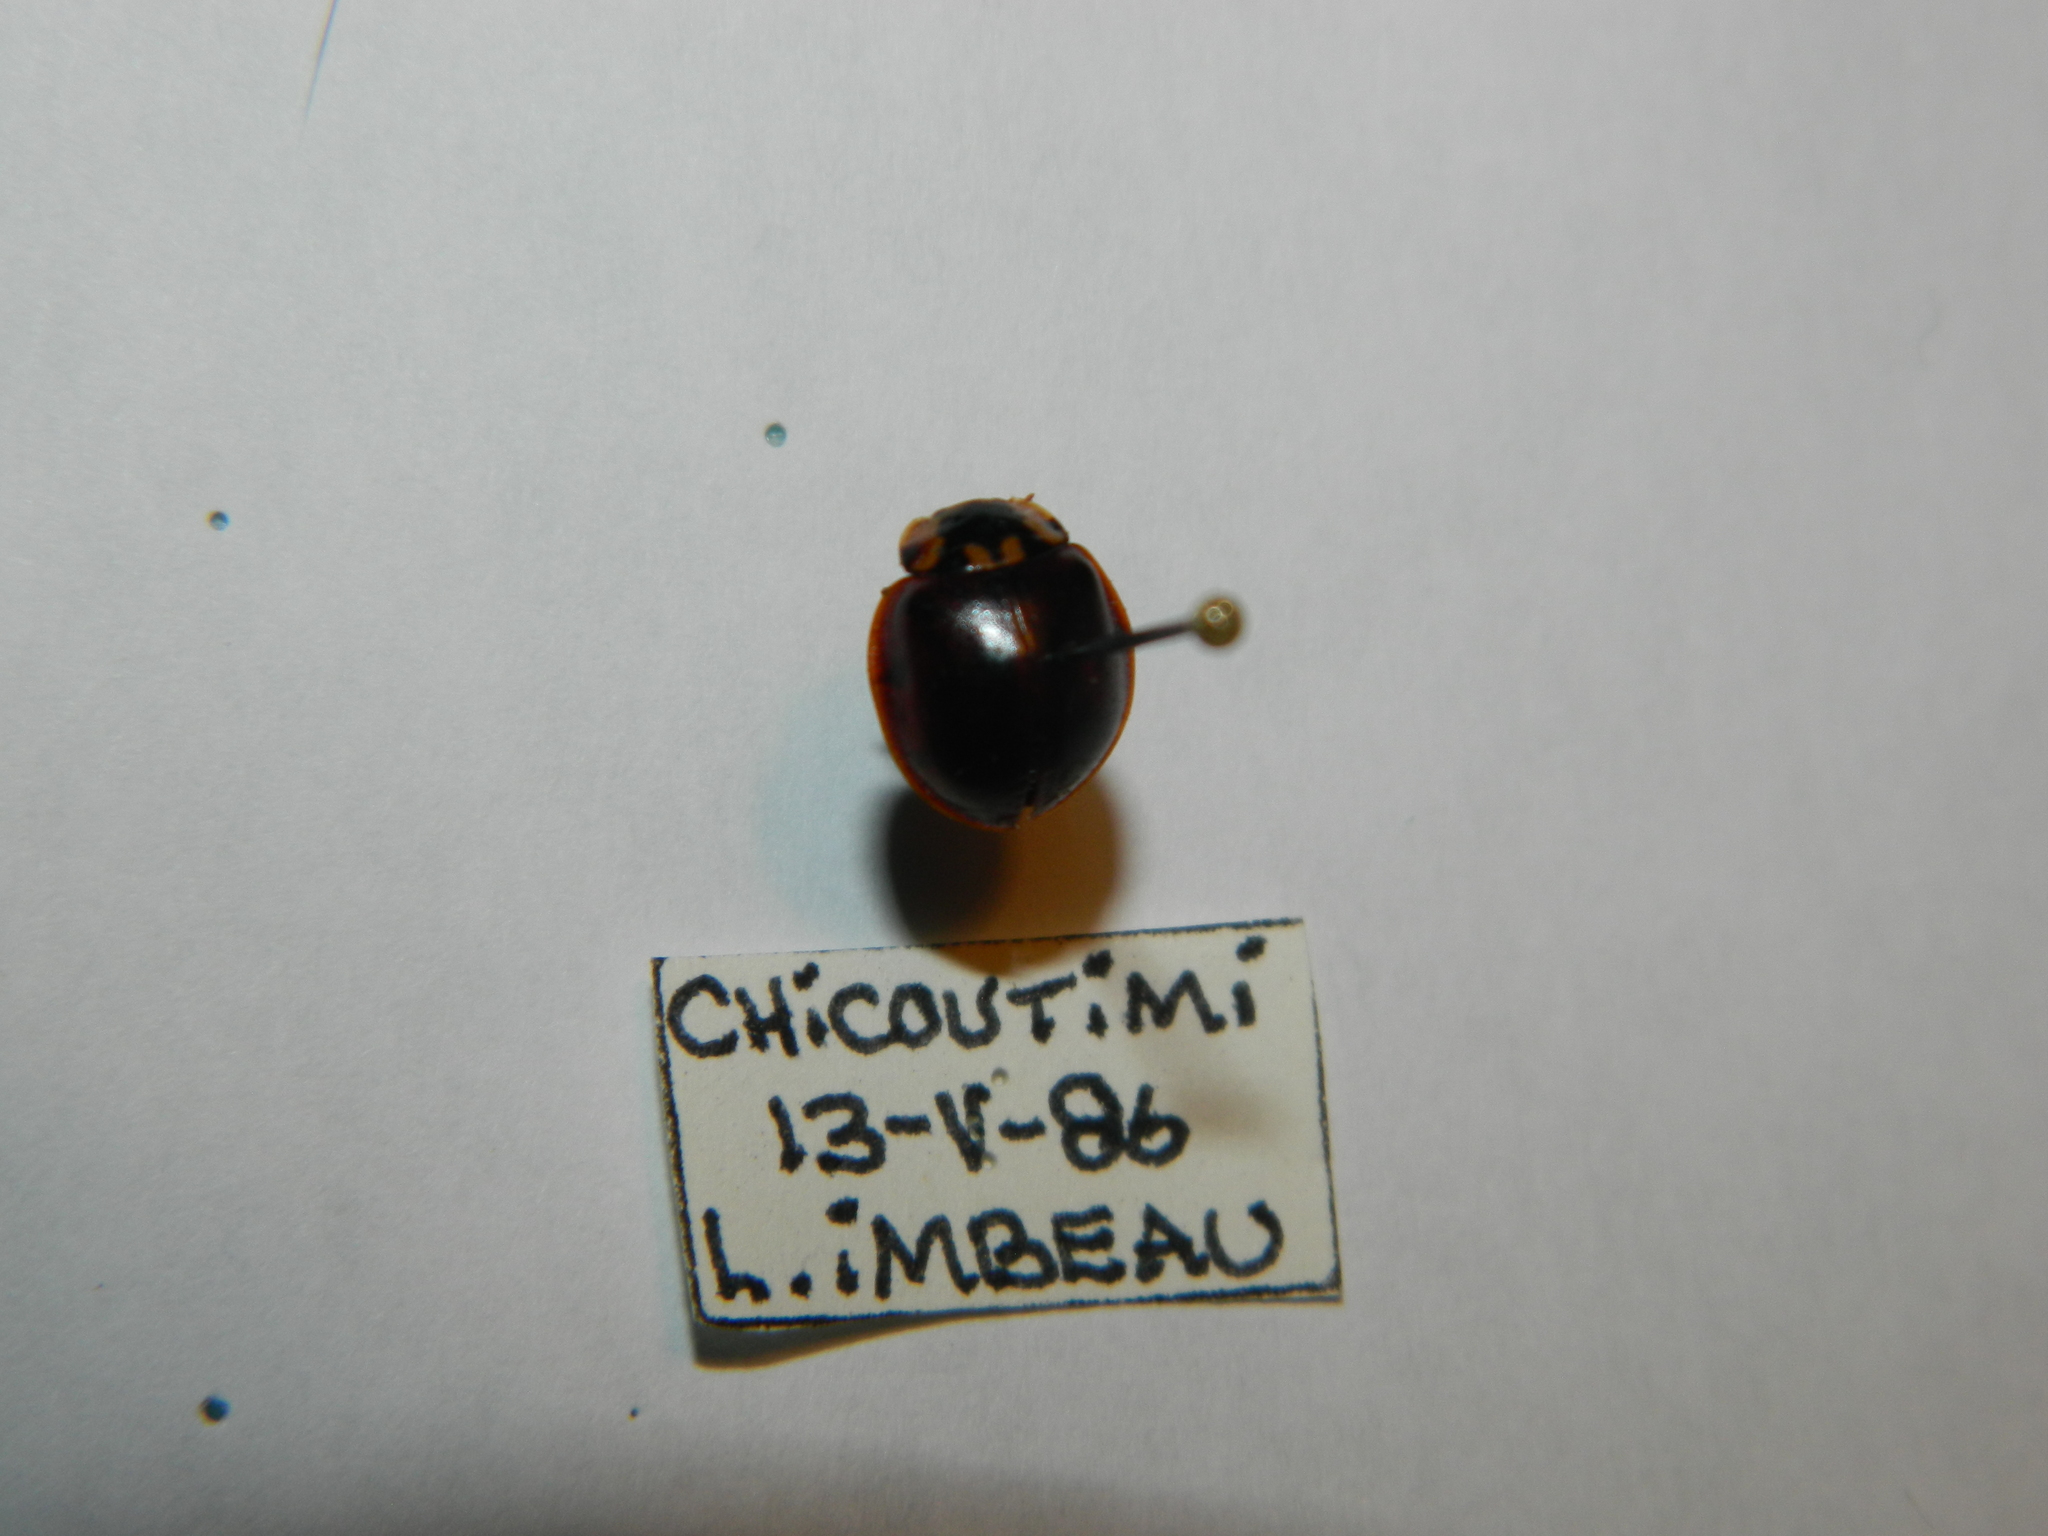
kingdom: Animalia
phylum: Arthropoda
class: Insecta
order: Coleoptera
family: Coccinellidae
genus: Anatis
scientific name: Anatis labiculata
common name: Fifteen-spotted lady beetle
